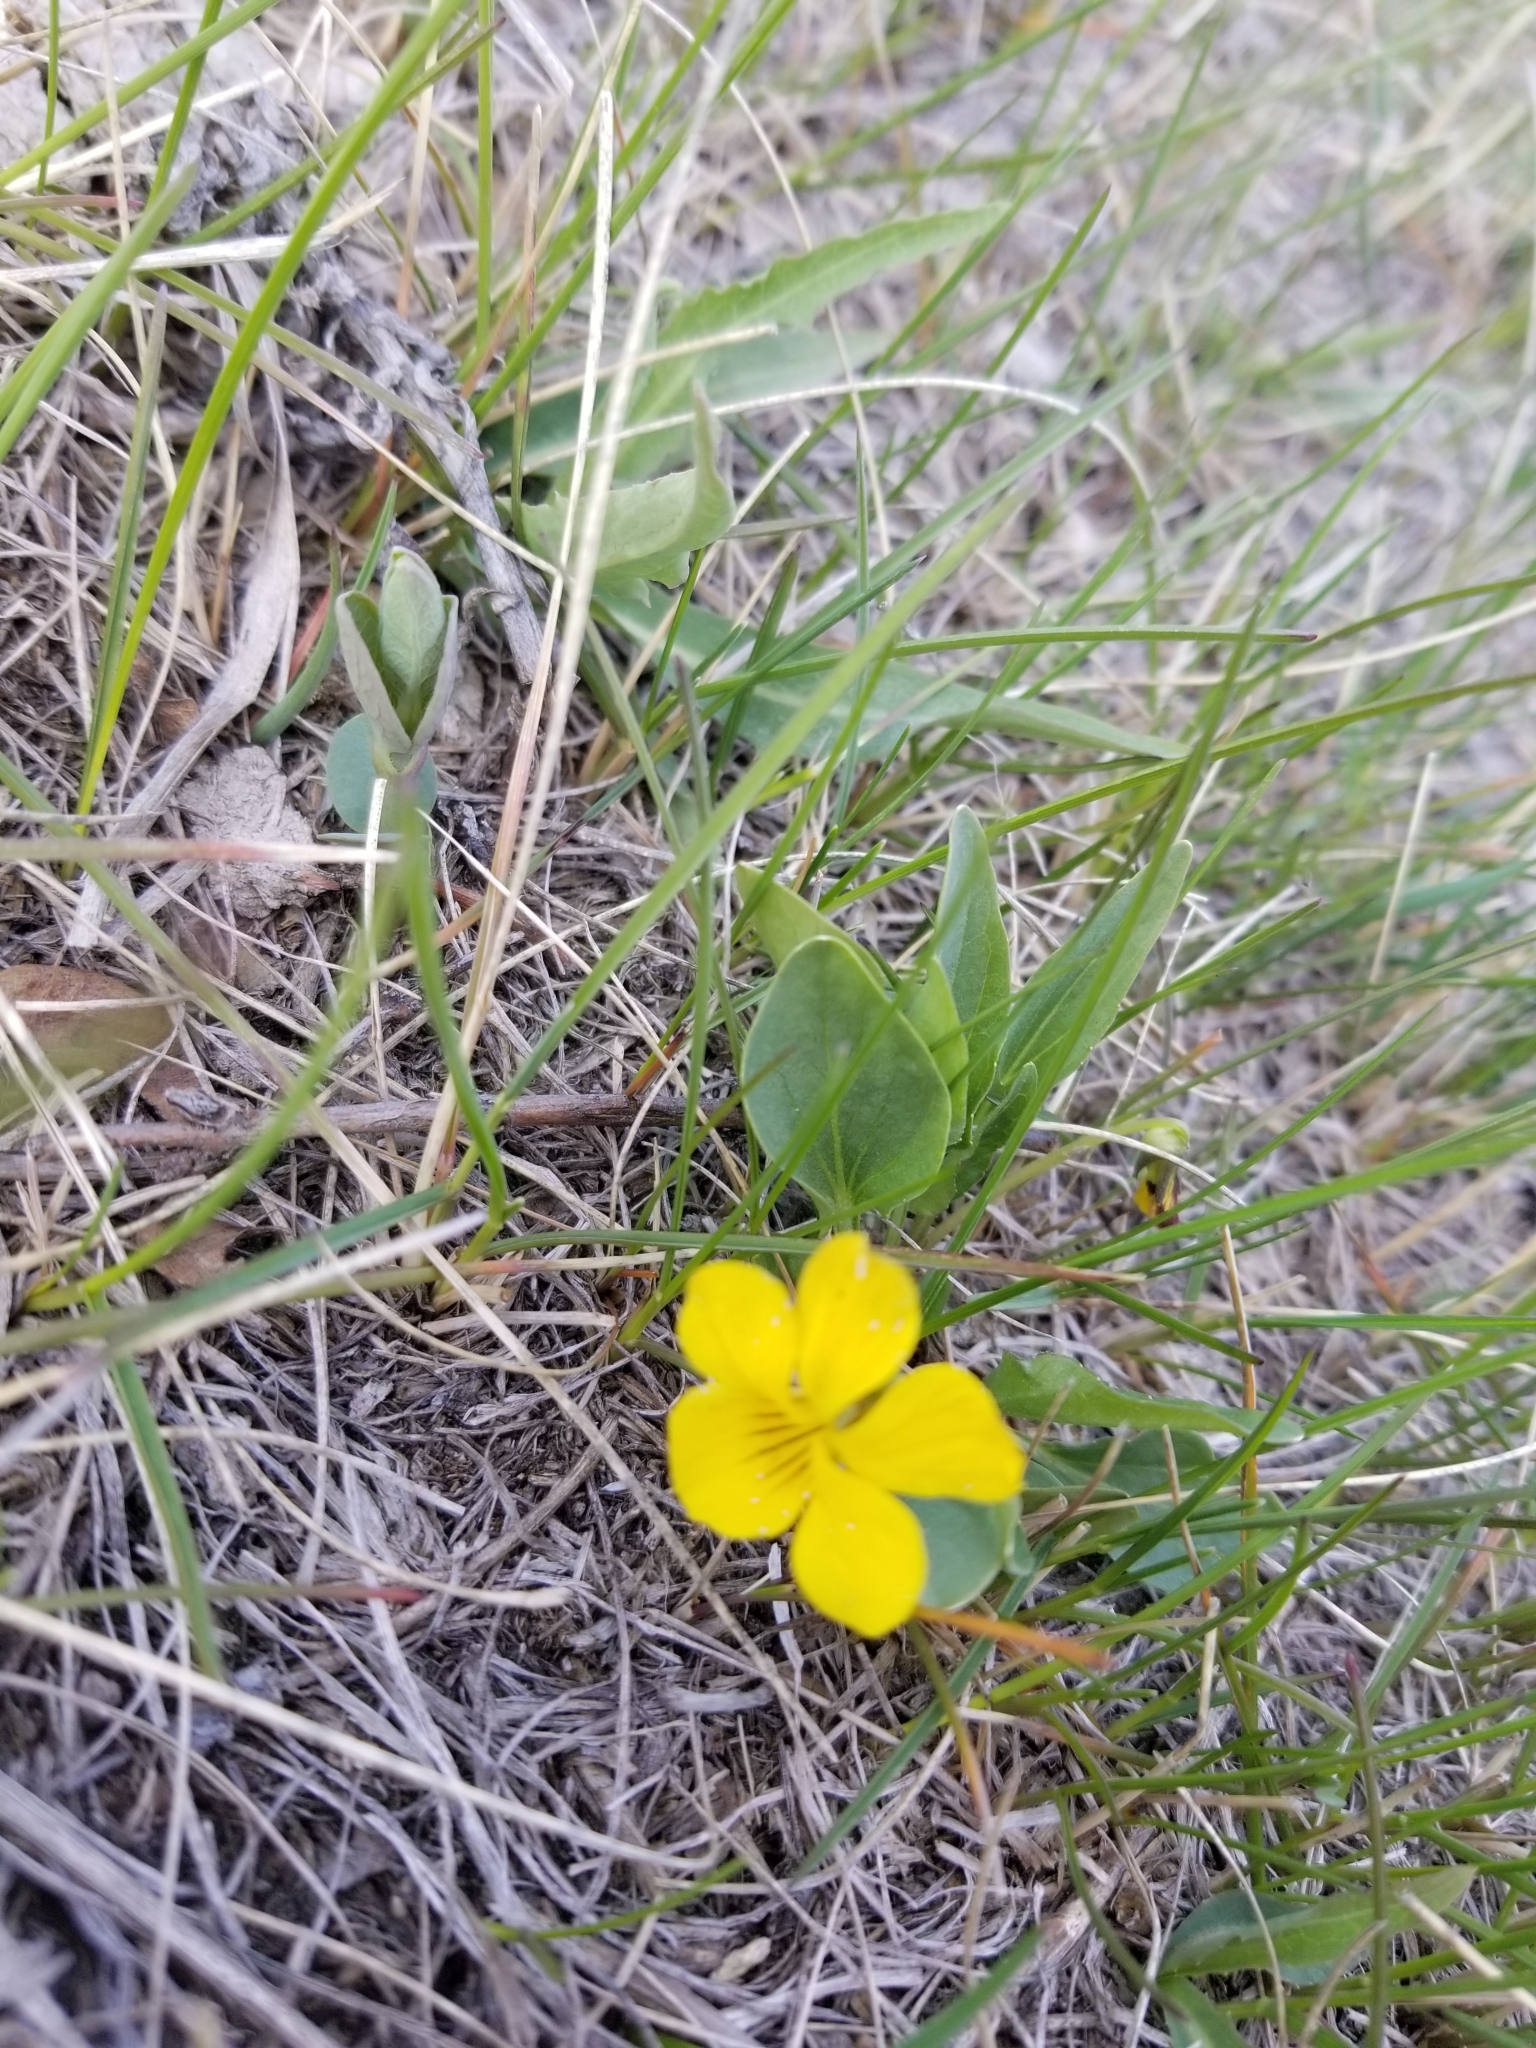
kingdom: Plantae
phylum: Tracheophyta
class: Magnoliopsida
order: Malpighiales
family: Violaceae
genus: Viola
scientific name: Viola nuttallii
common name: Yellow prairie violet
